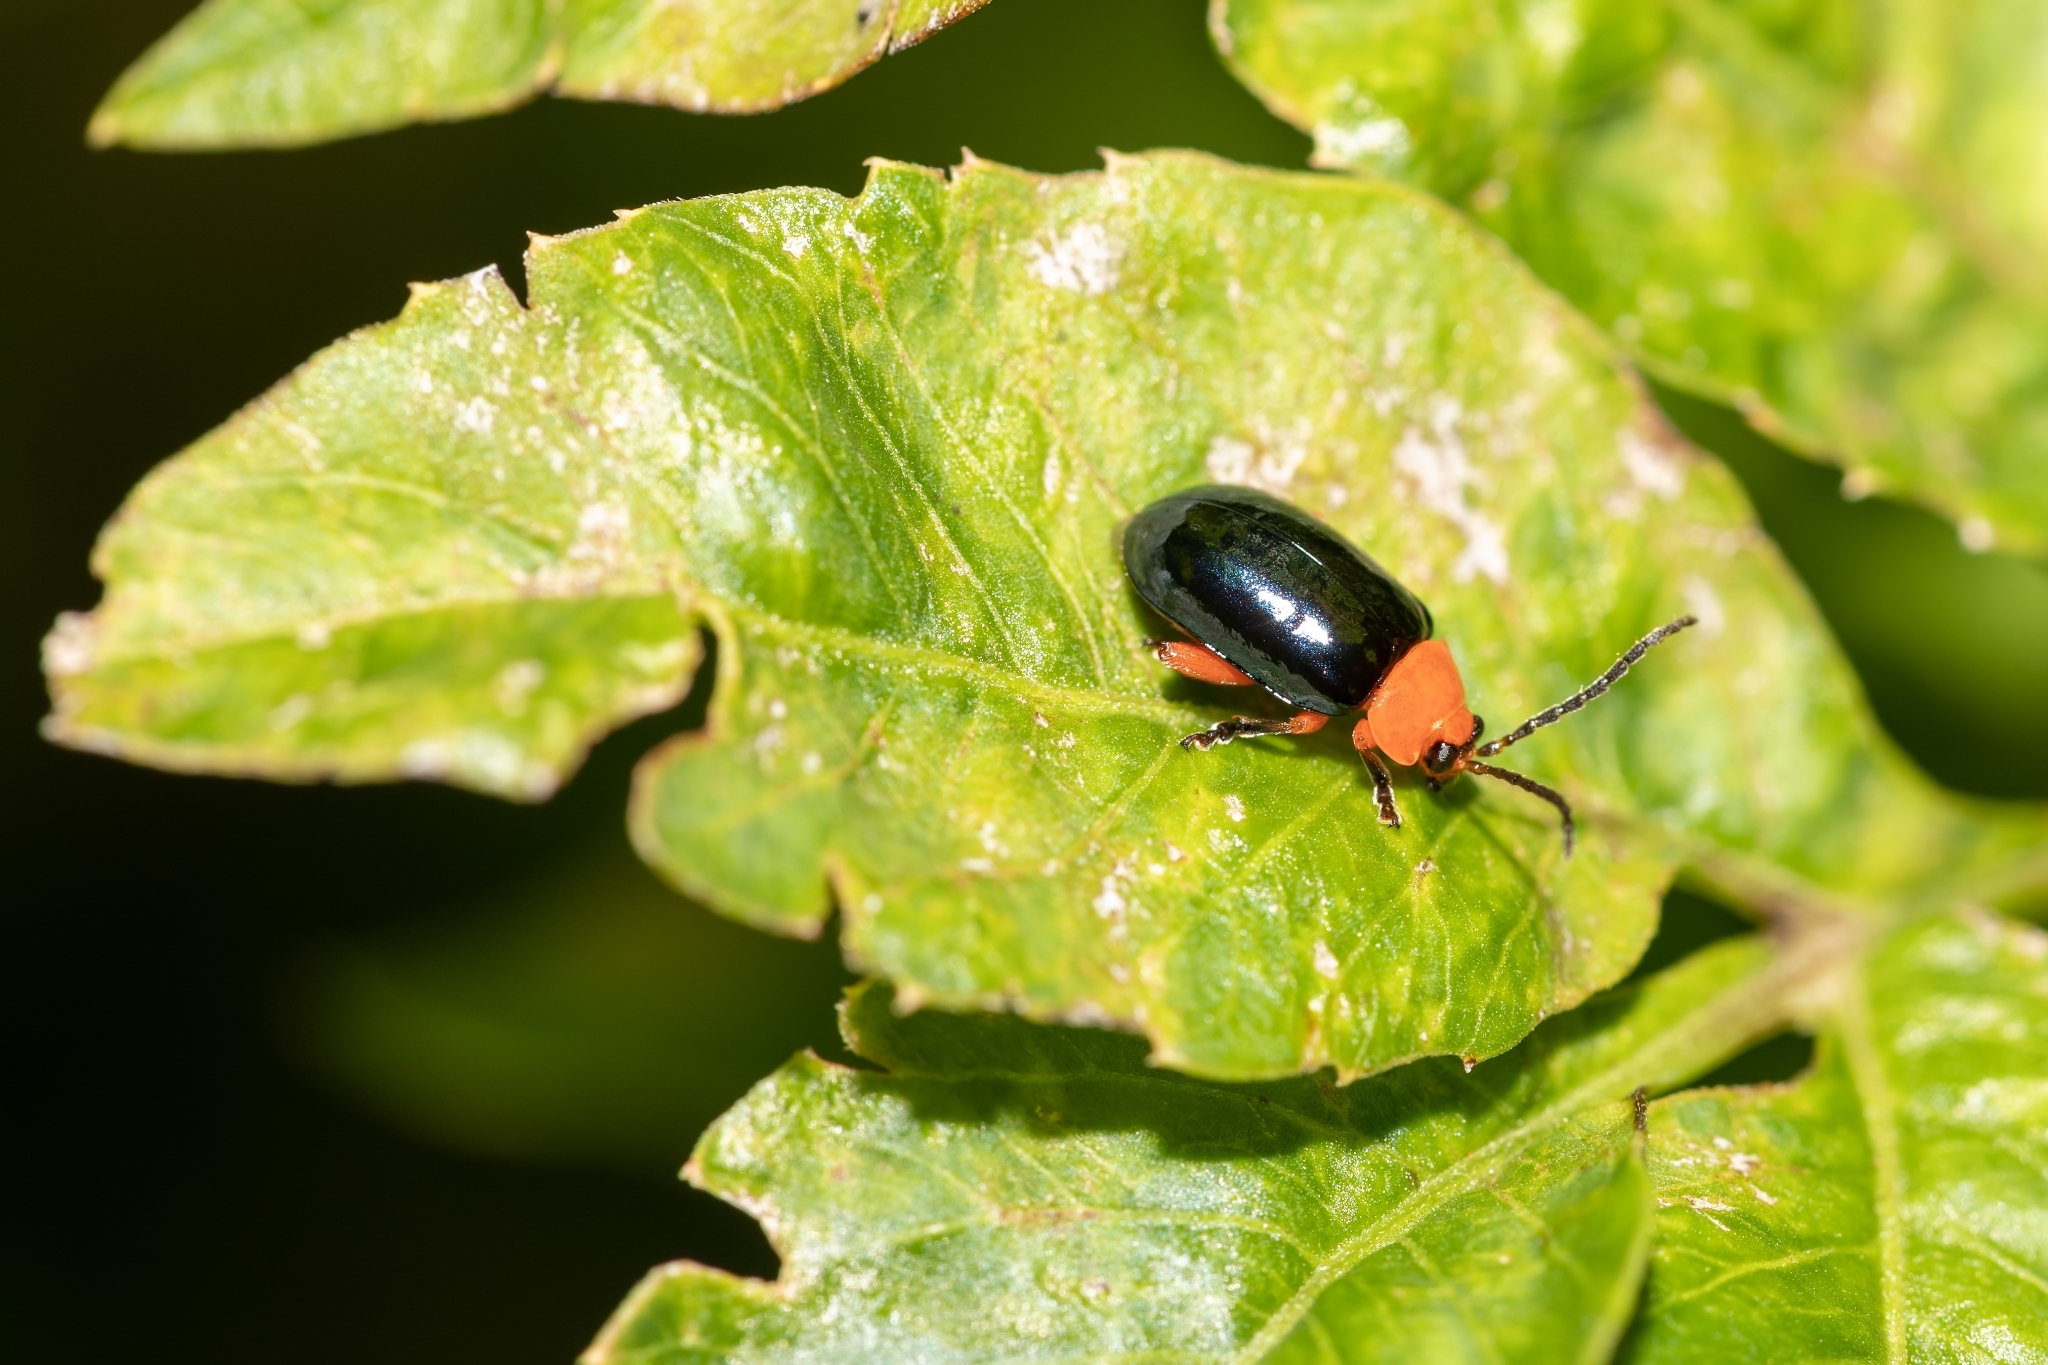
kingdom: Animalia
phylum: Arthropoda
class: Insecta
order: Coleoptera
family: Chrysomelidae
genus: Asphaera
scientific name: Asphaera lustrans
